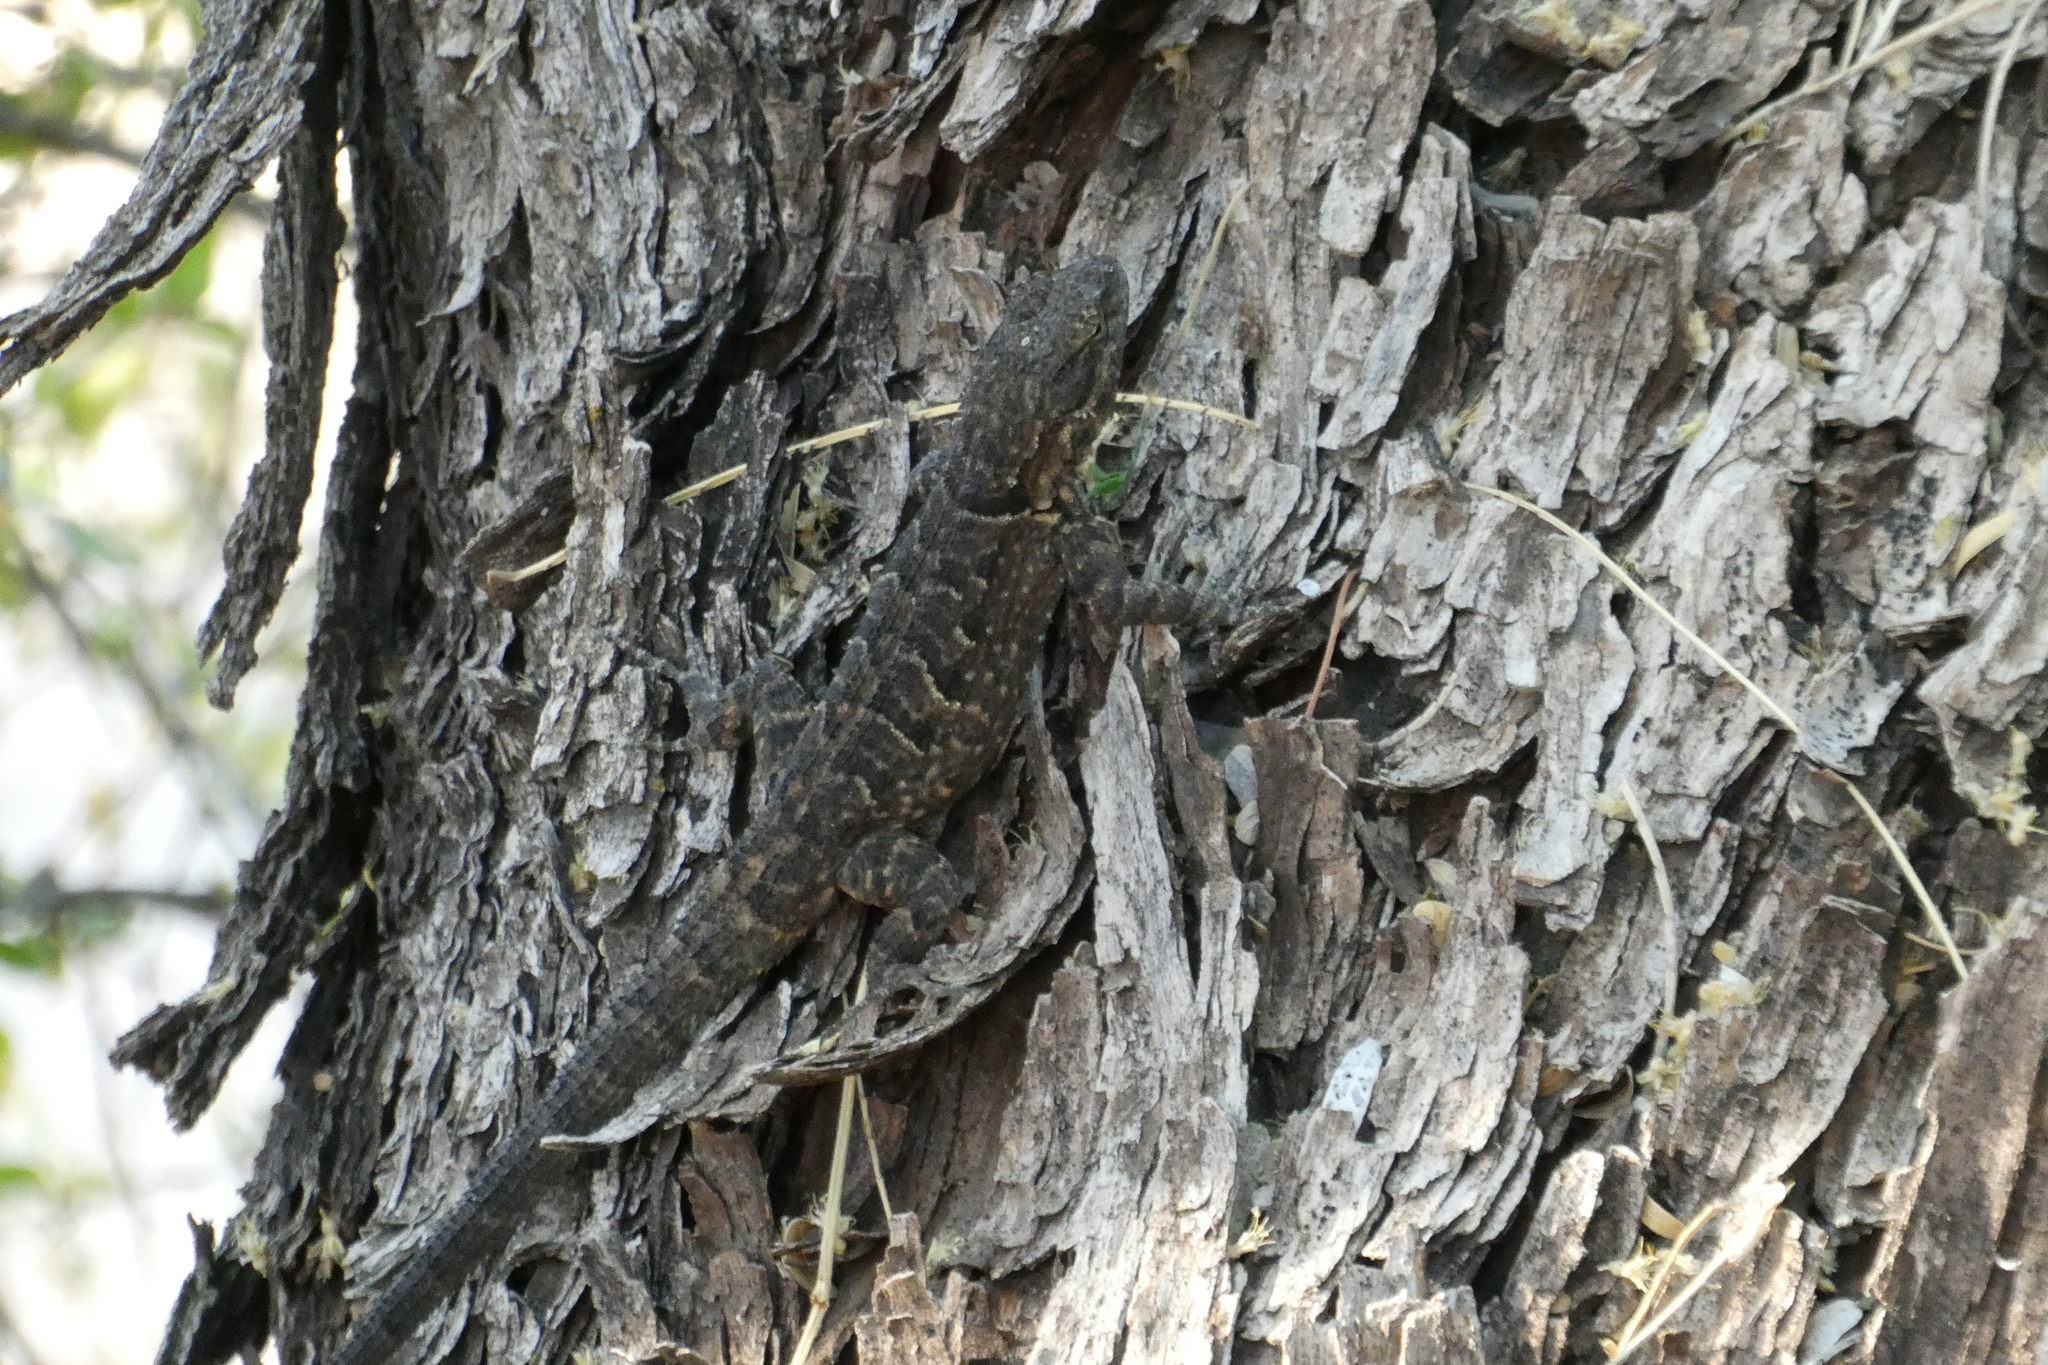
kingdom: Animalia
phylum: Chordata
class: Squamata
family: Phrynosomatidae
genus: Urosaurus
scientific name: Urosaurus ornatus
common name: Ornate tree lizard
